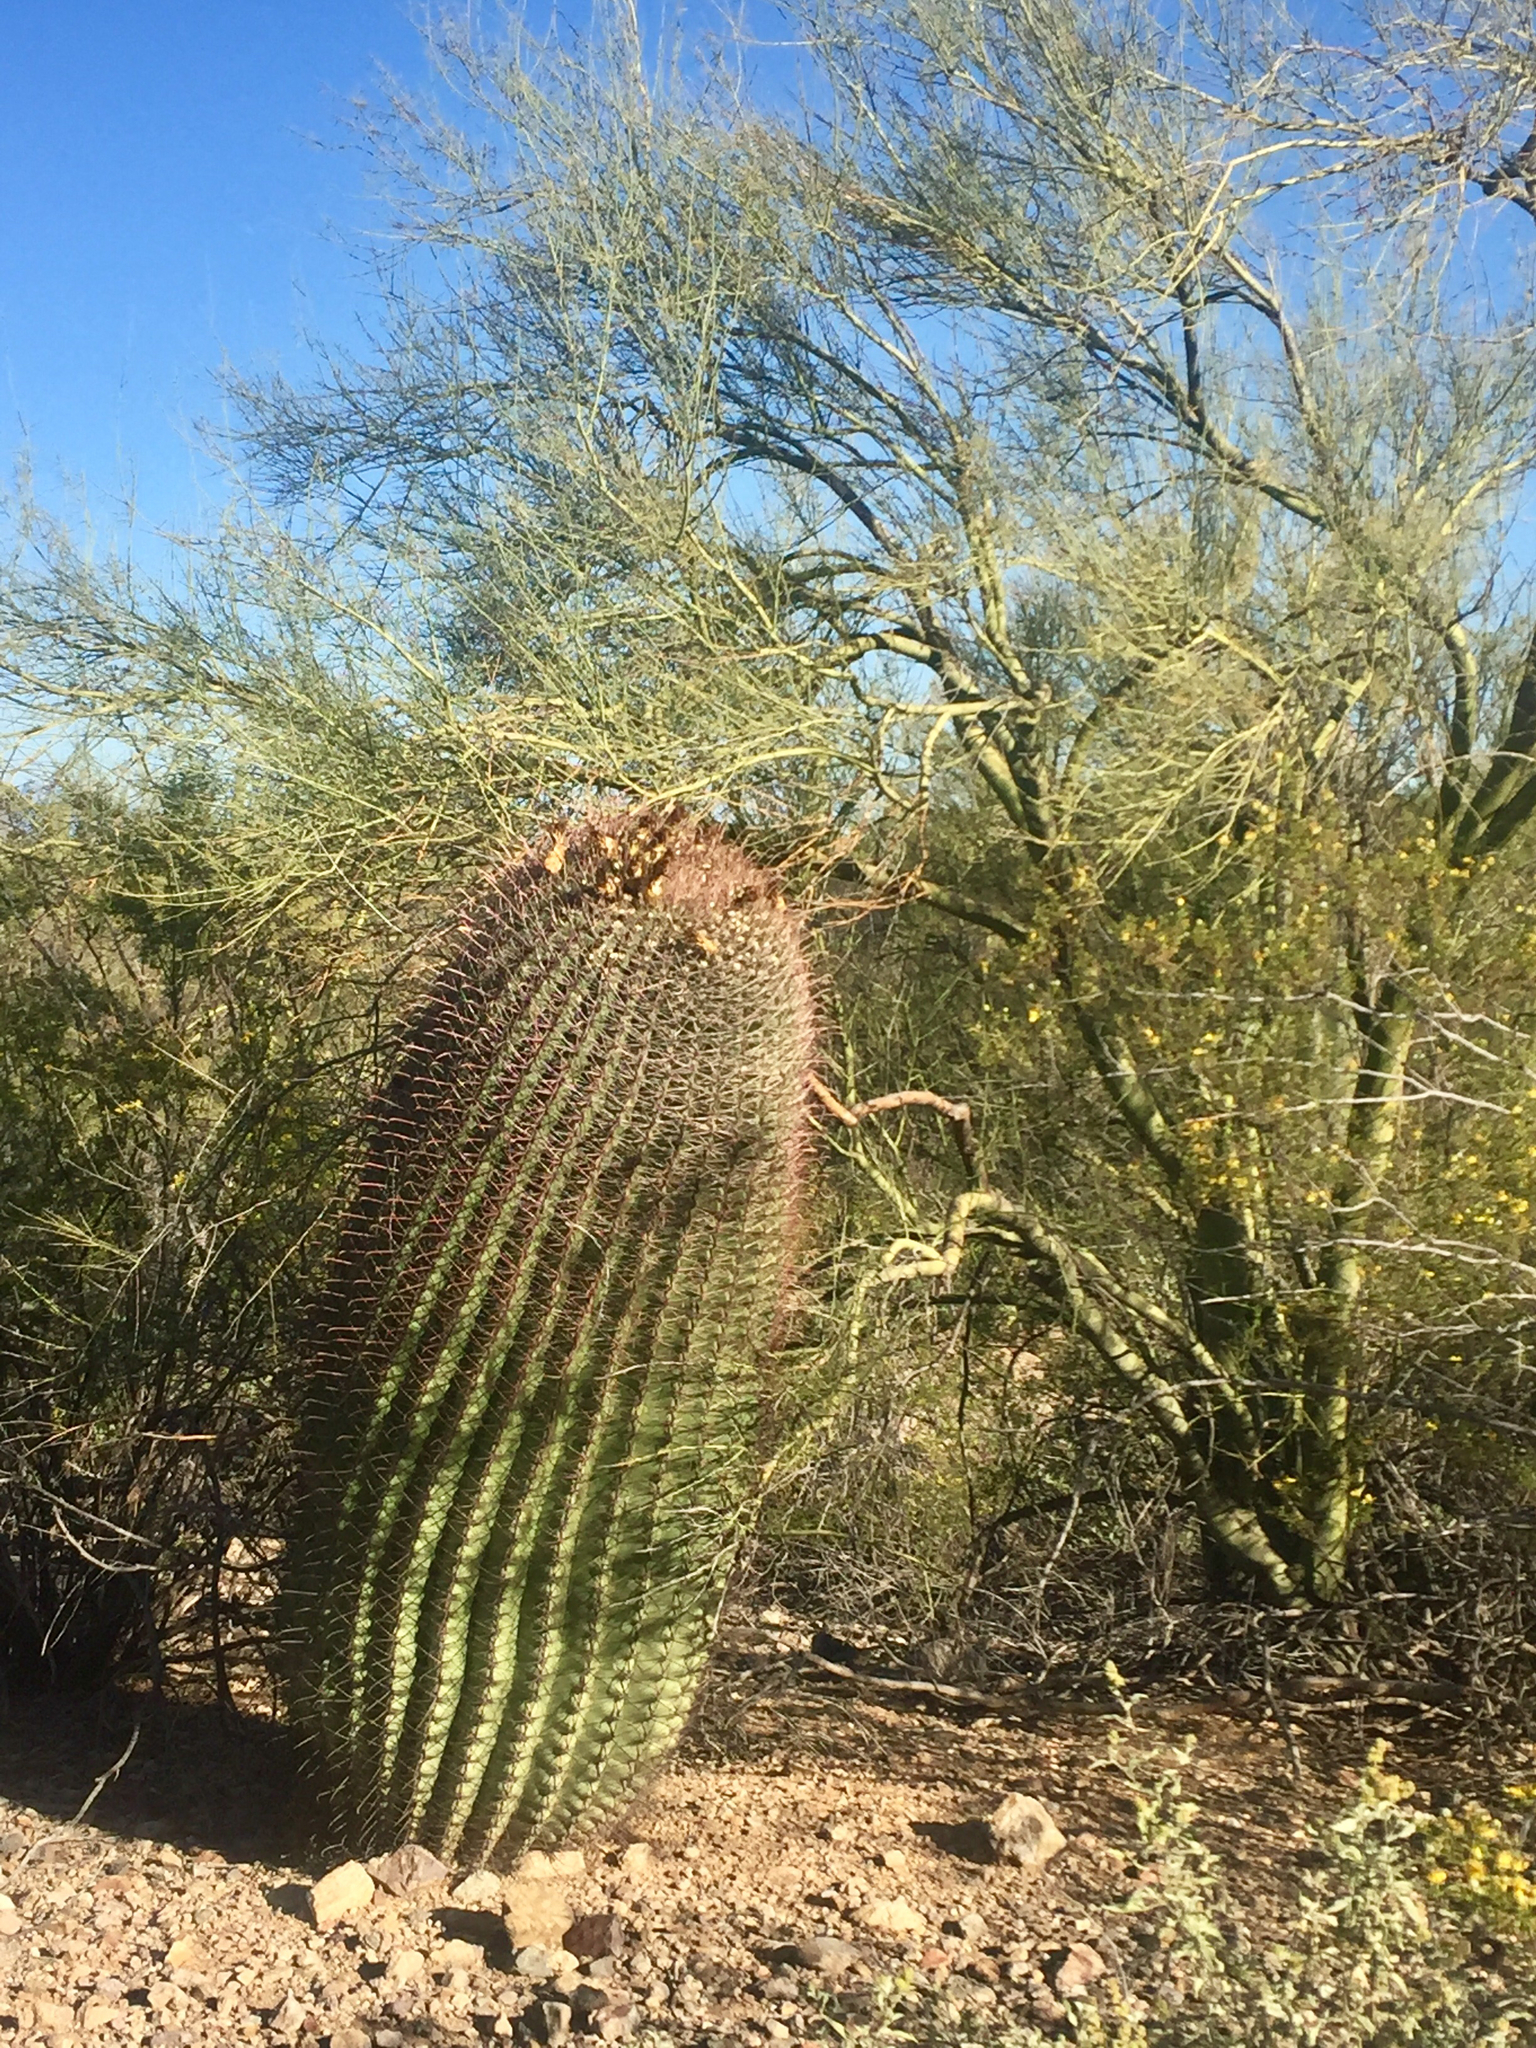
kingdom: Plantae
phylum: Tracheophyta
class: Magnoliopsida
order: Caryophyllales
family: Cactaceae
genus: Ferocactus
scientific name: Ferocactus wislizeni
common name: Candy barrel cactus
